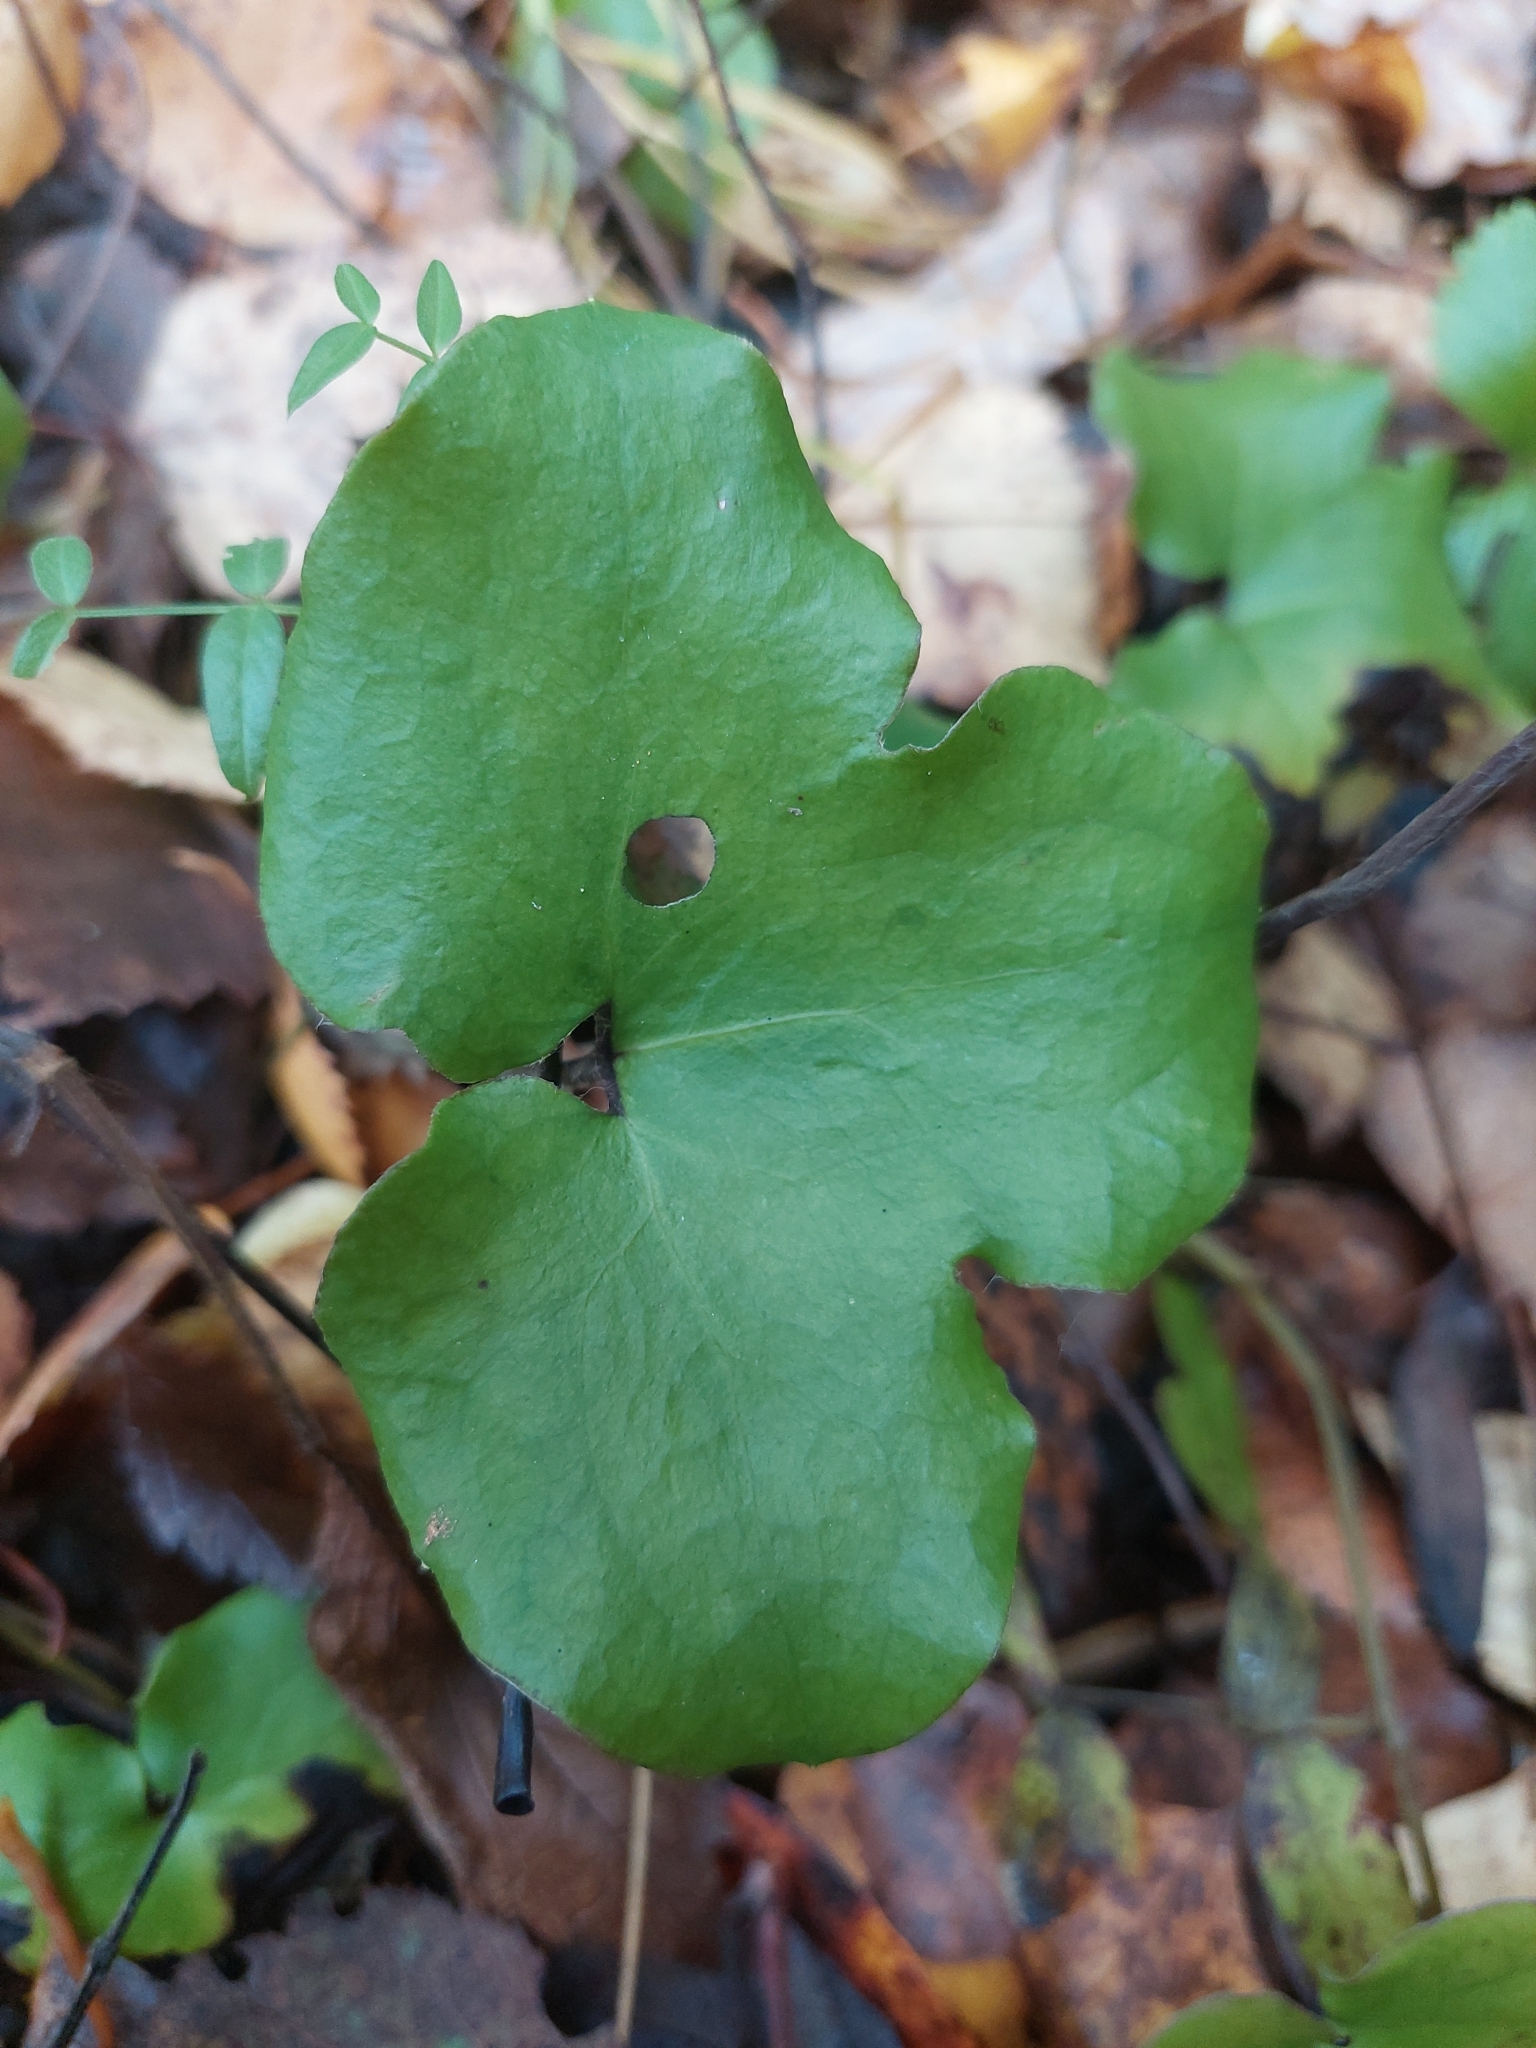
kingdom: Plantae
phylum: Tracheophyta
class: Magnoliopsida
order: Ranunculales
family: Ranunculaceae
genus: Hepatica
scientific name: Hepatica nobilis
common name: Liverleaf
